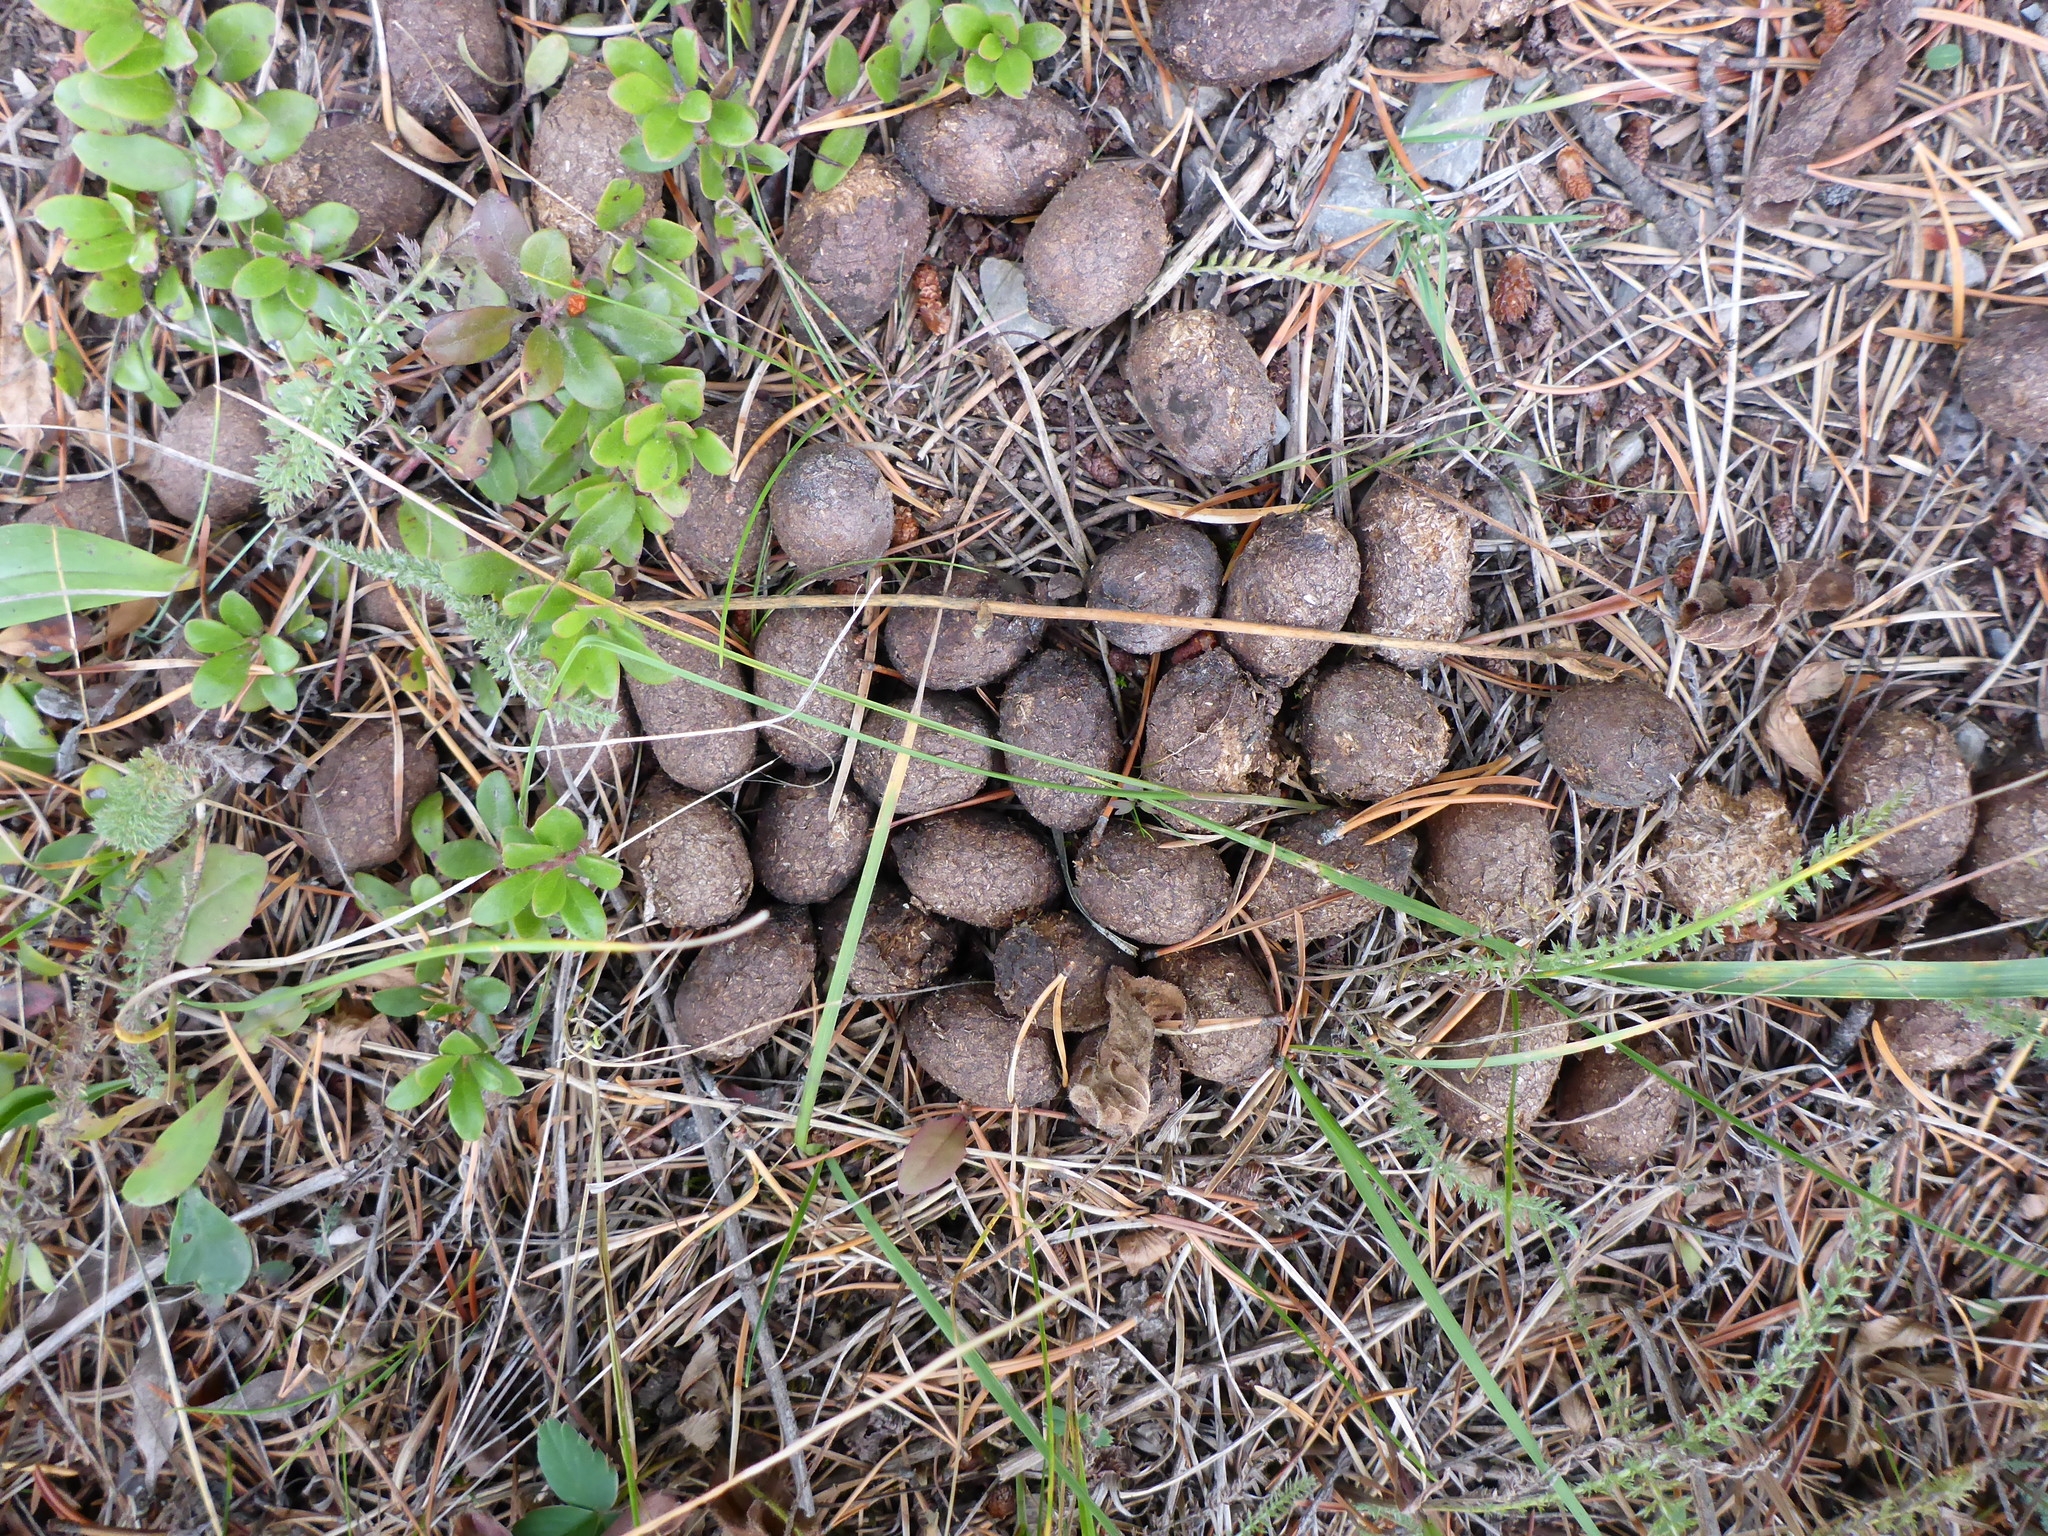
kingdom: Animalia
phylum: Chordata
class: Mammalia
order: Artiodactyla
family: Cervidae
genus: Alces
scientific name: Alces alces
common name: Moose
